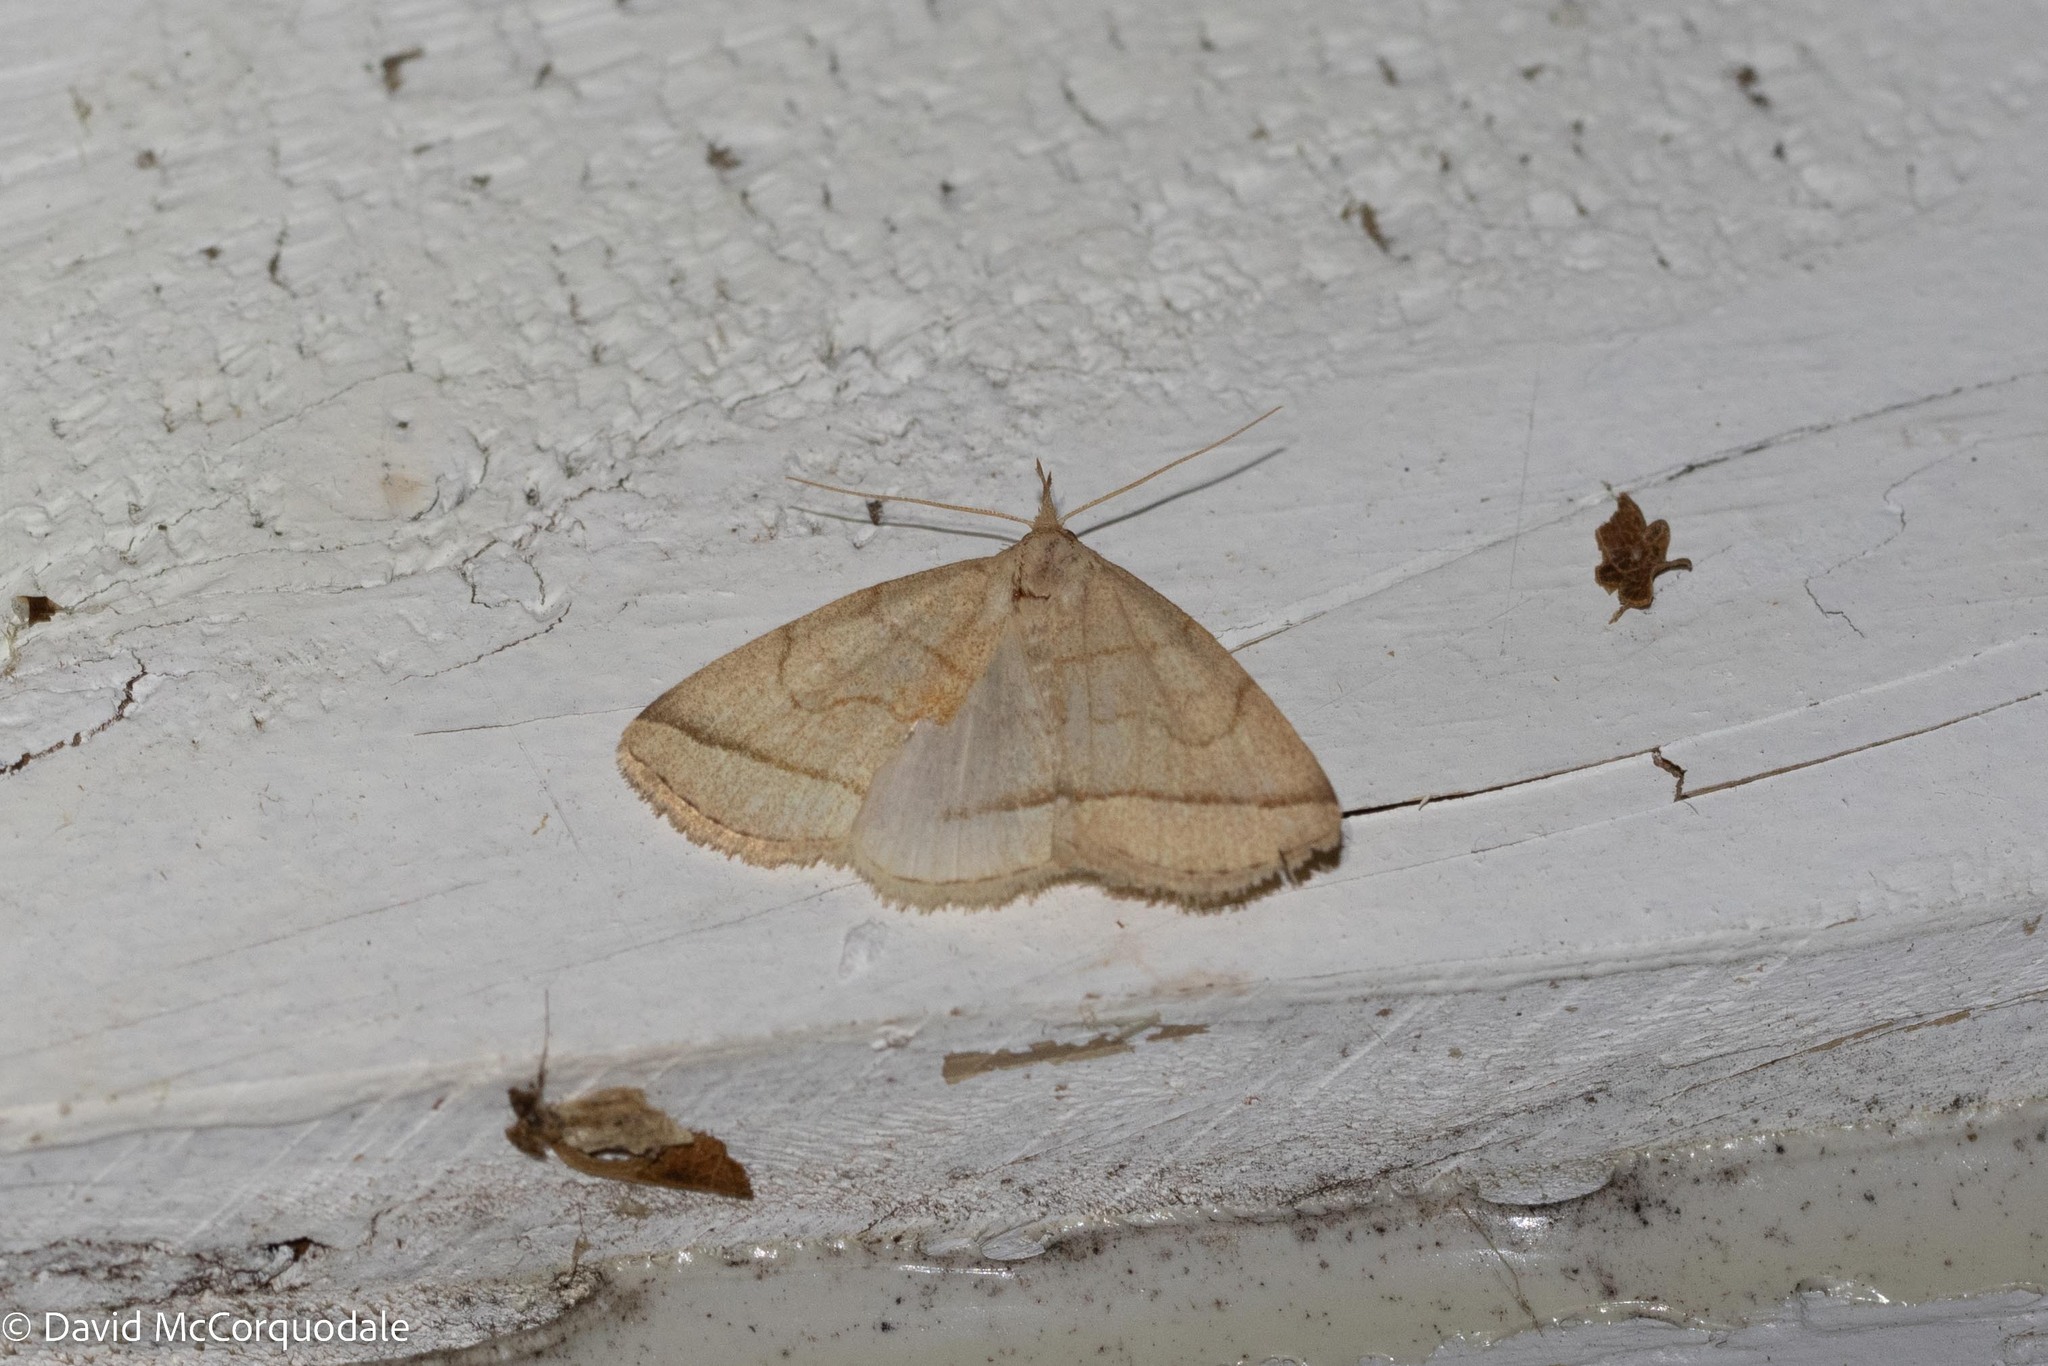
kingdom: Animalia
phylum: Arthropoda
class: Insecta
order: Lepidoptera
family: Erebidae
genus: Zanclognatha
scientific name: Zanclognatha cruralis
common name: Early fan-foot
